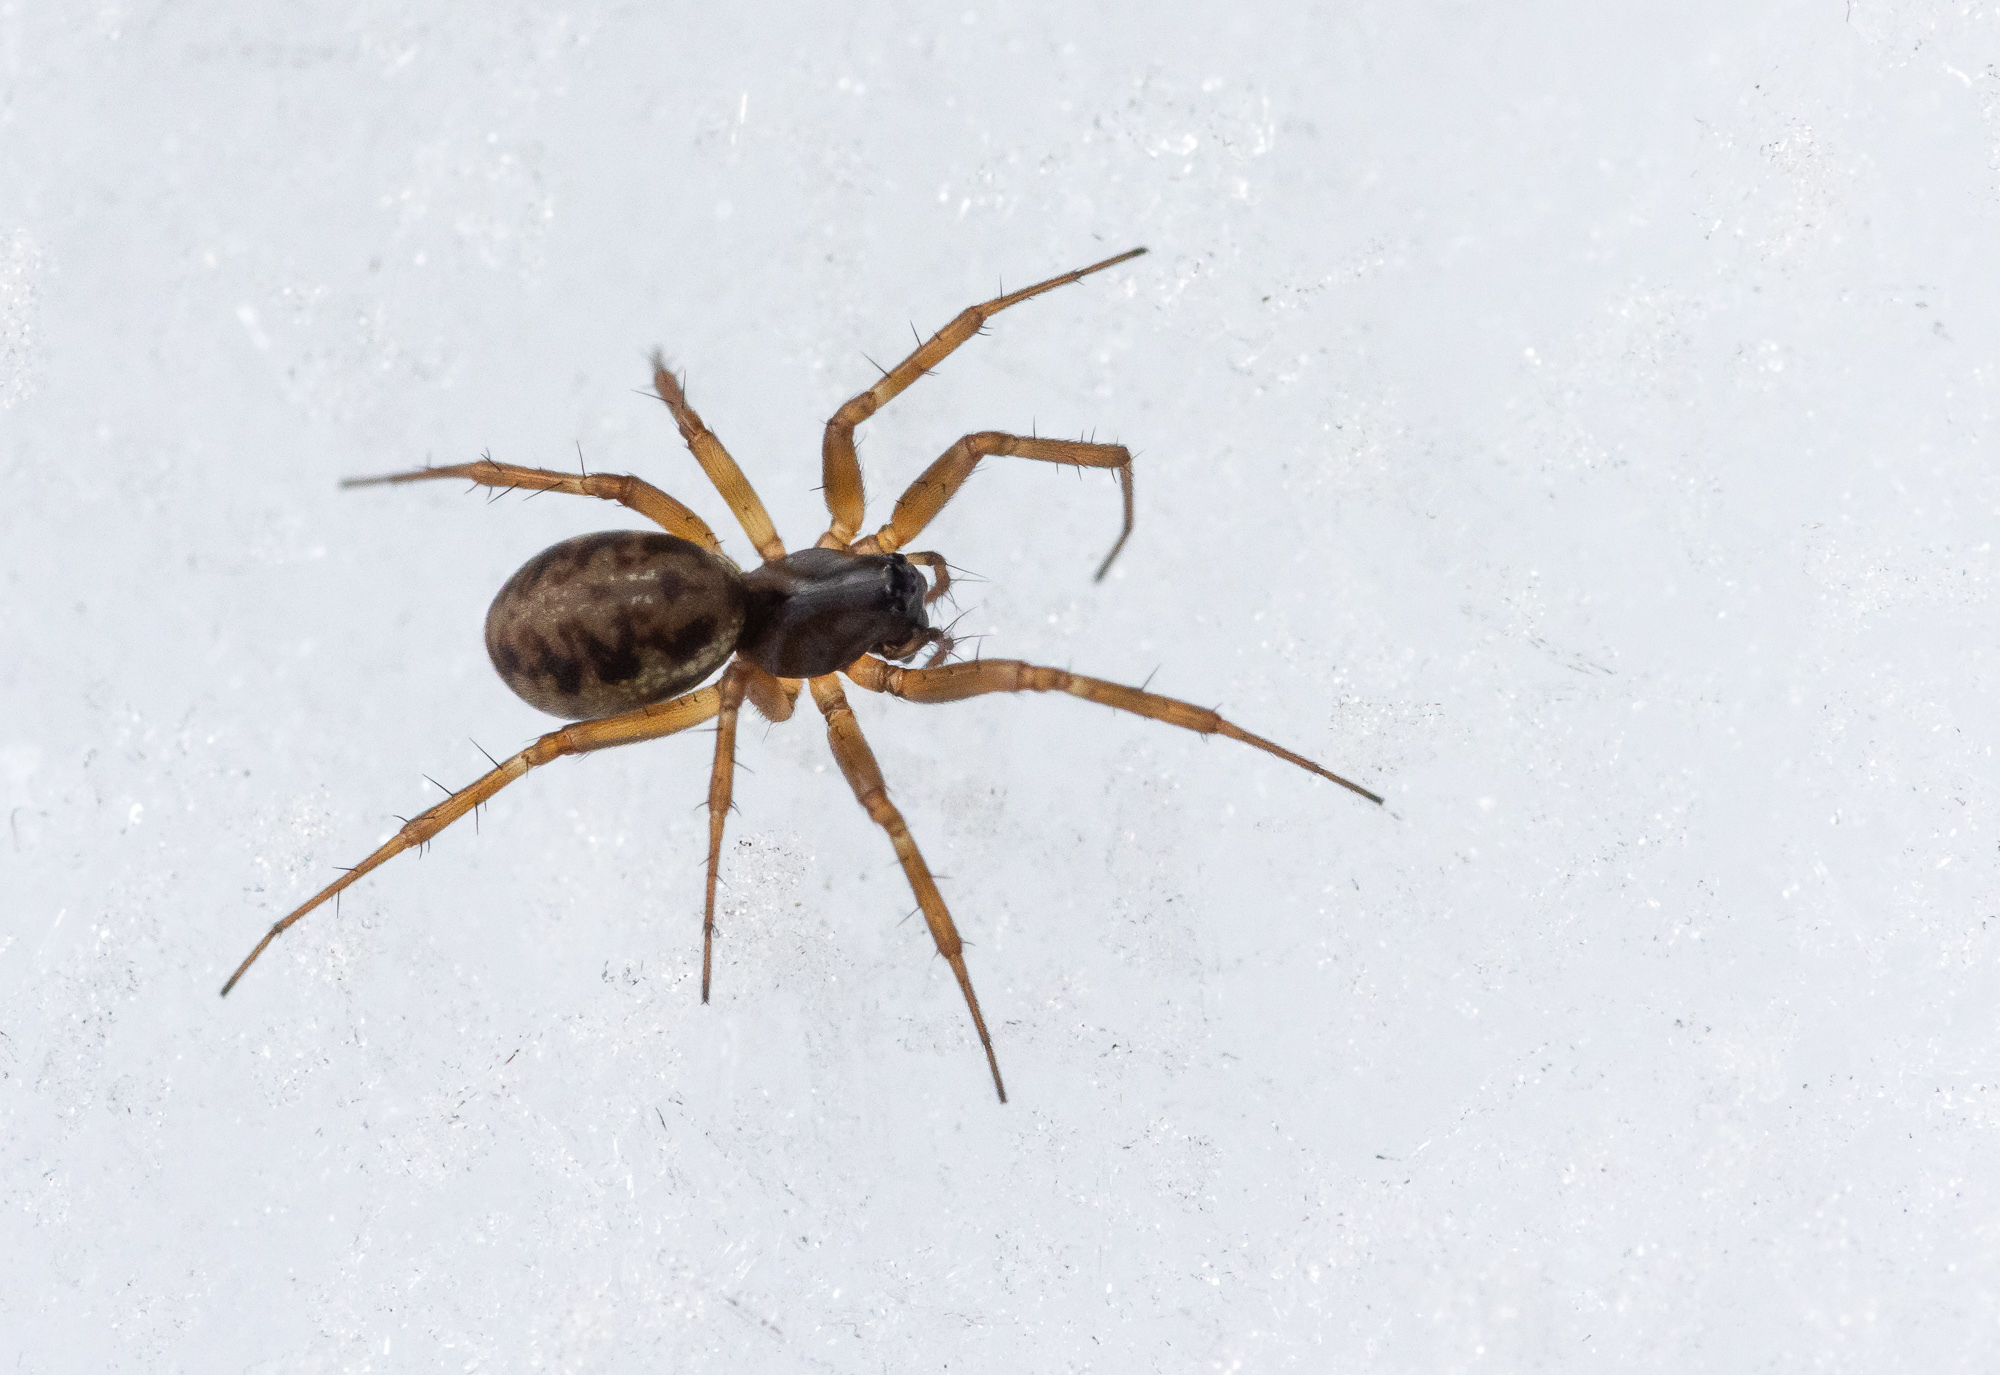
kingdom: Animalia
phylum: Arthropoda
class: Arachnida
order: Araneae
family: Linyphiidae
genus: Neriene
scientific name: Neriene clathrata
